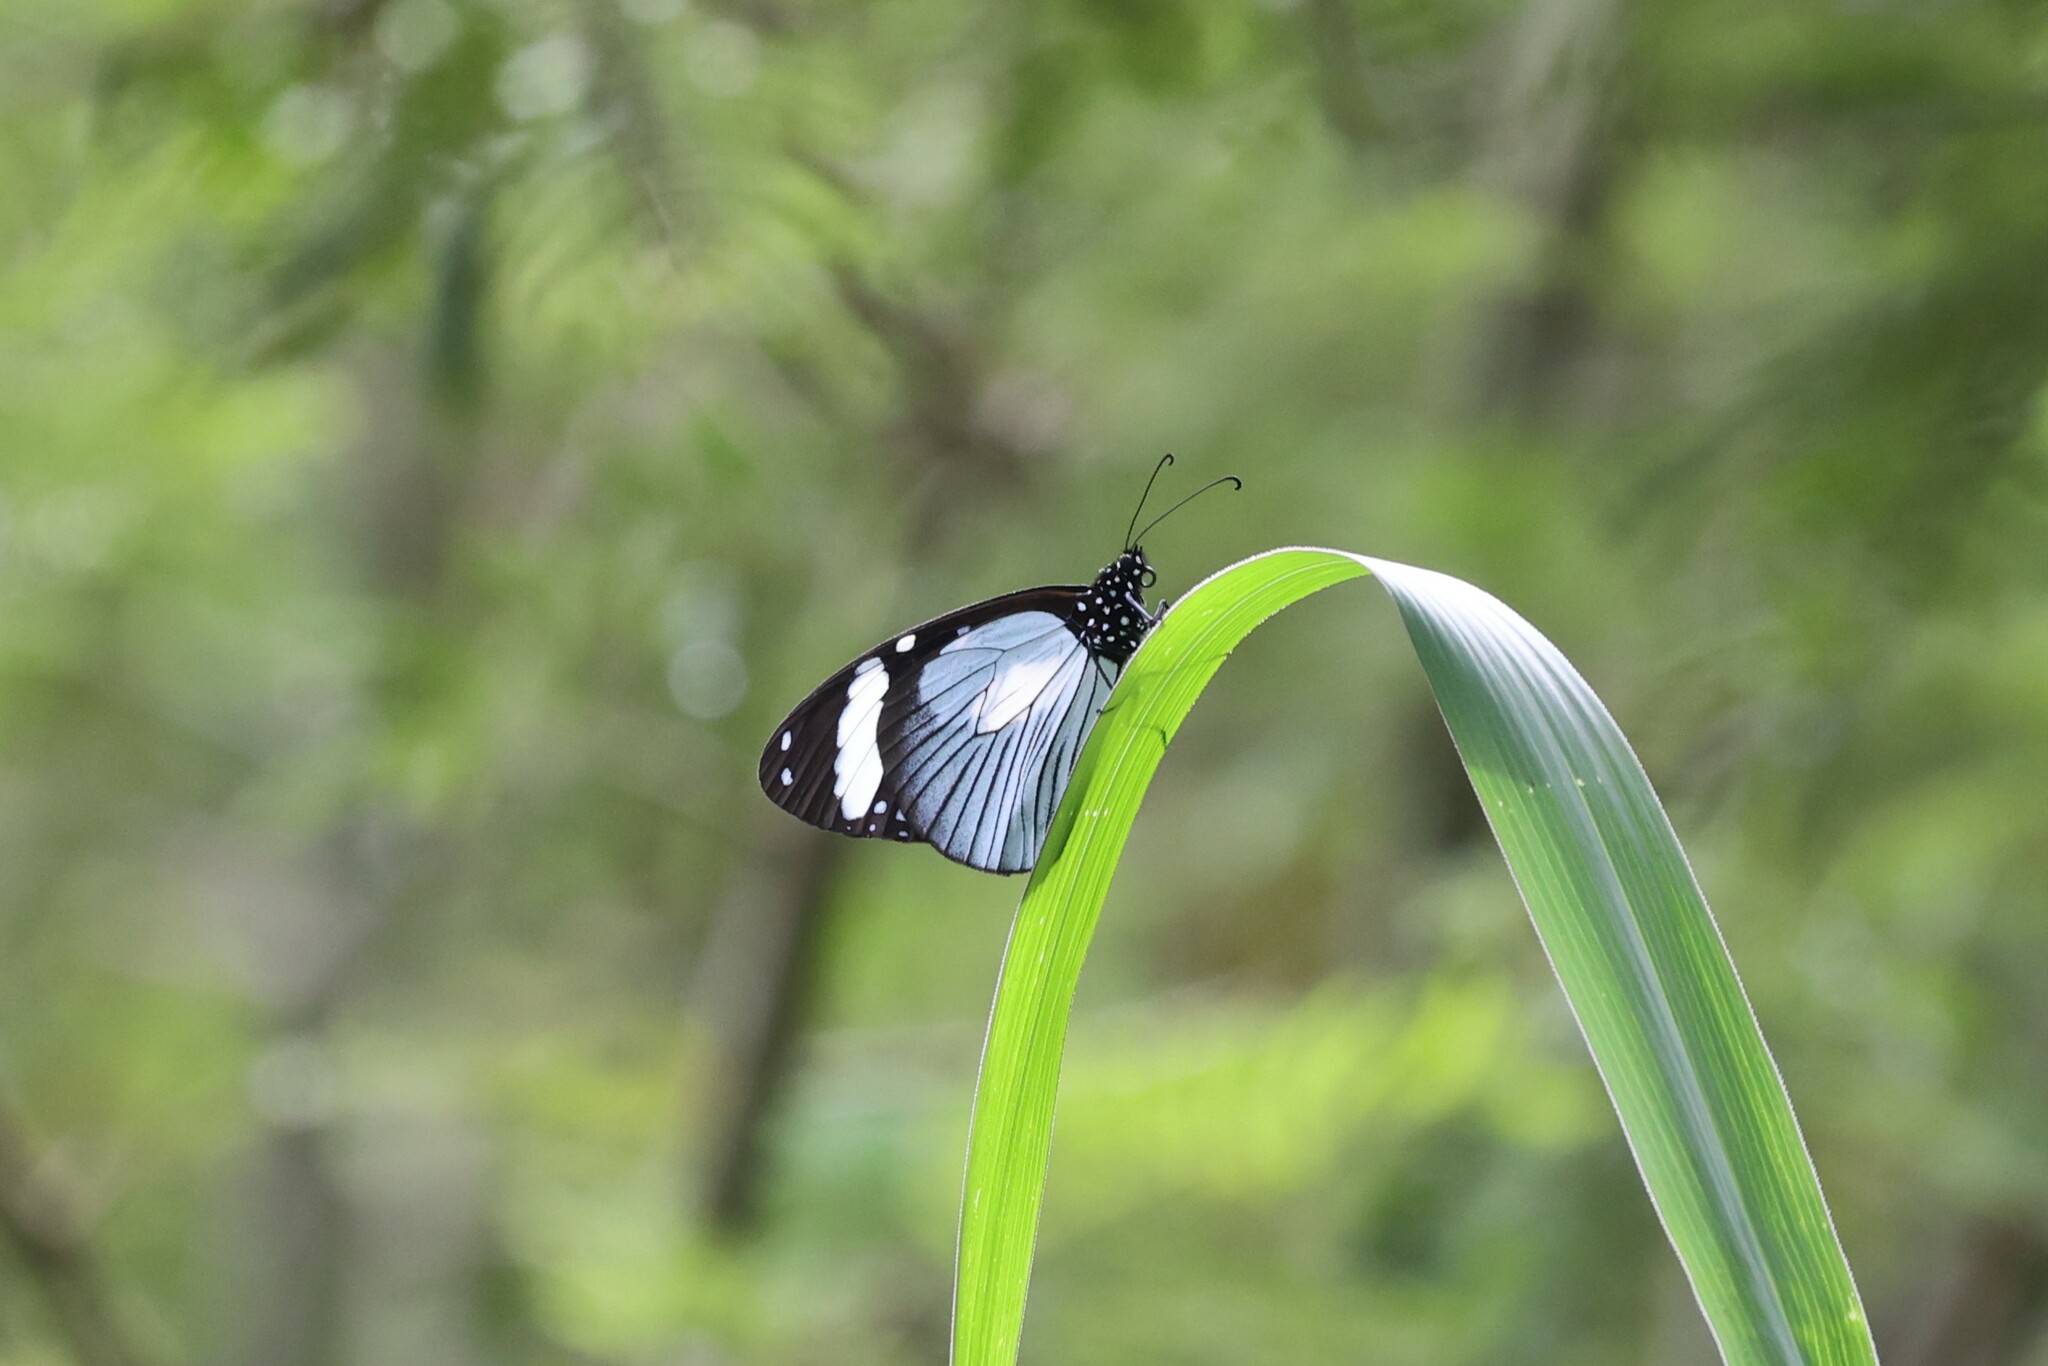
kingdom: Animalia
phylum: Arthropoda
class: Insecta
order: Lepidoptera
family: Nymphalidae
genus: Amauris
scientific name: Amauris niavius
